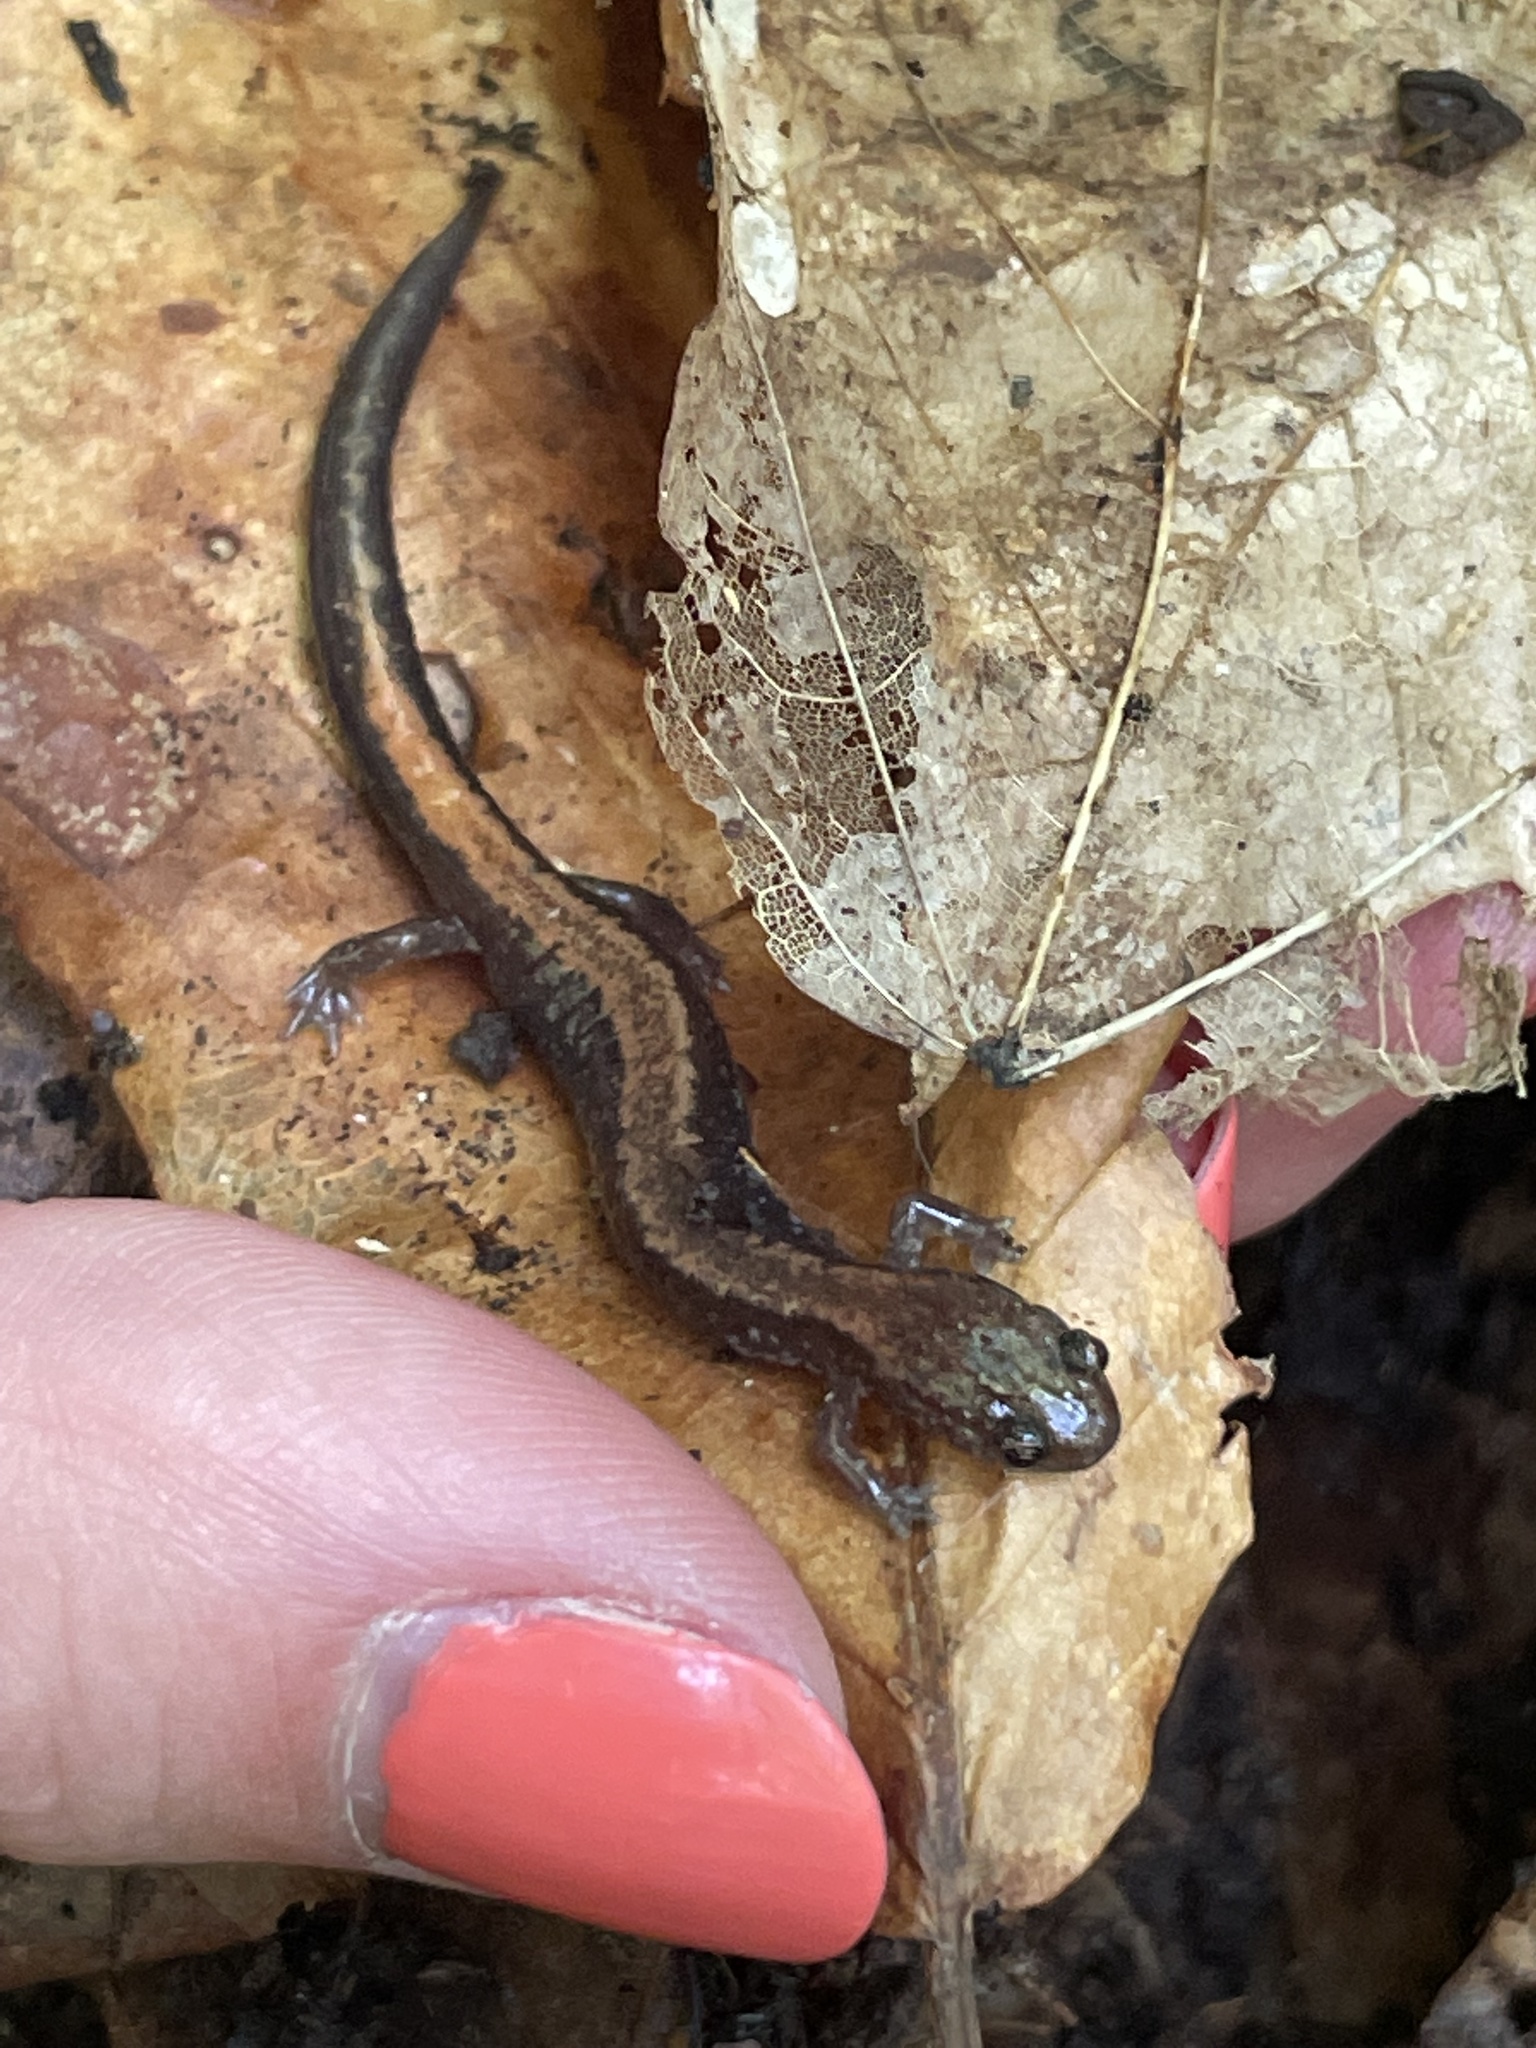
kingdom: Animalia
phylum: Chordata
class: Amphibia
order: Caudata
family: Plethodontidae
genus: Plethodon
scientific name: Plethodon cinereus
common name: Redback salamander
